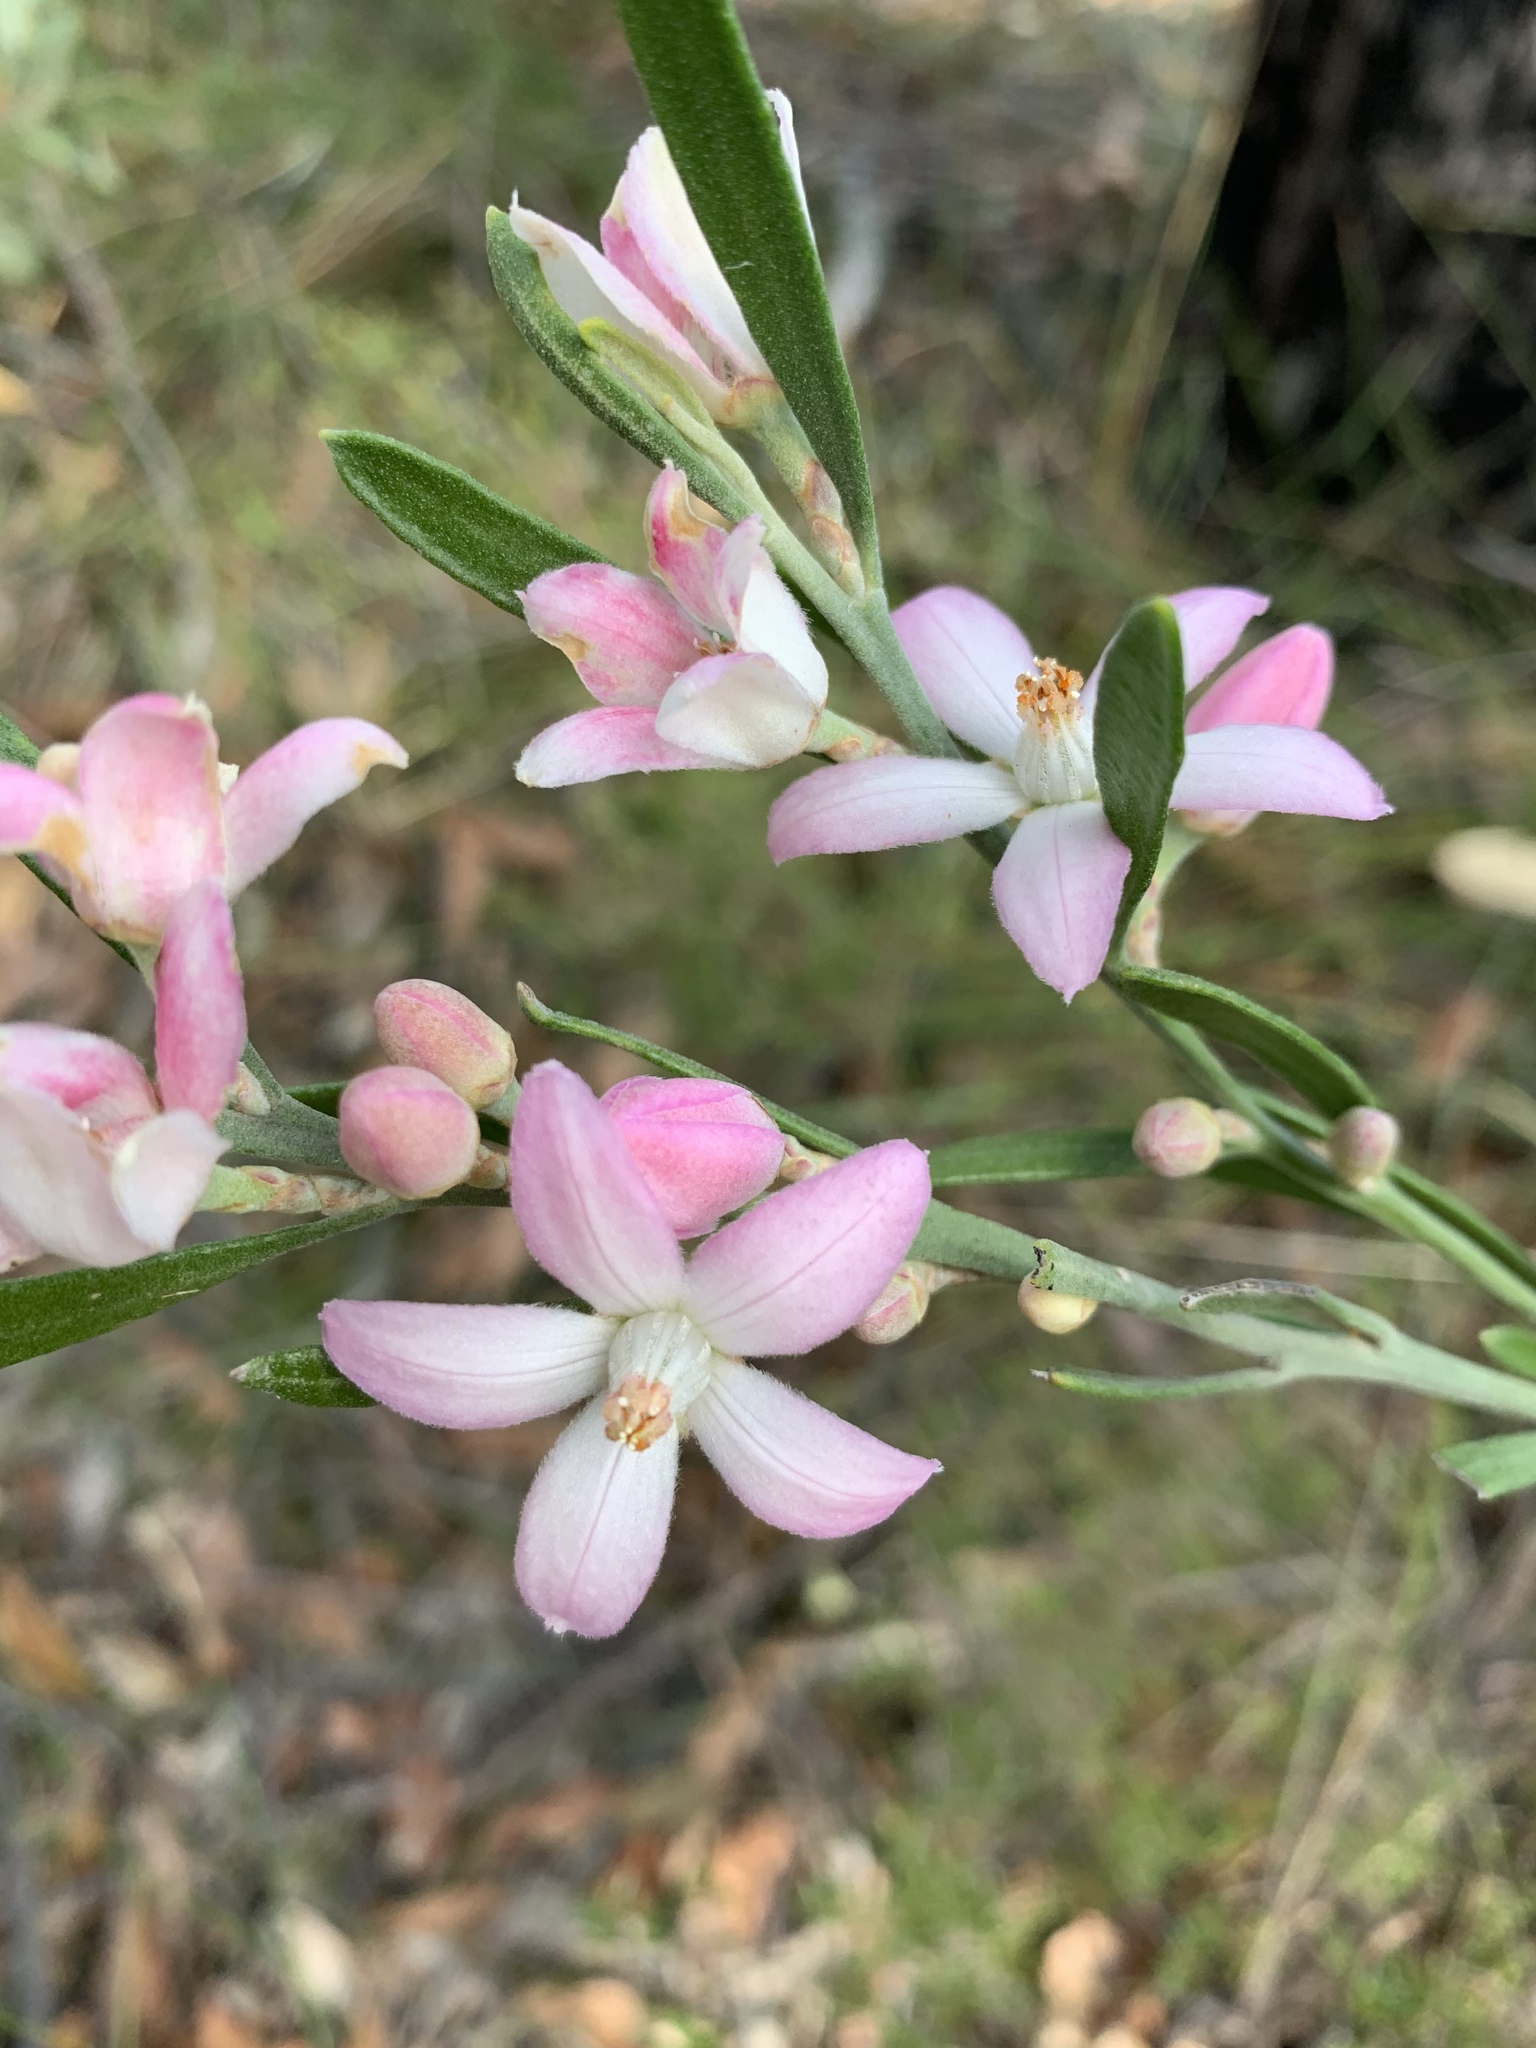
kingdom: Plantae
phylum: Tracheophyta
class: Magnoliopsida
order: Sapindales
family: Rutaceae
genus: Eriostemon
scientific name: Eriostemon australasius
